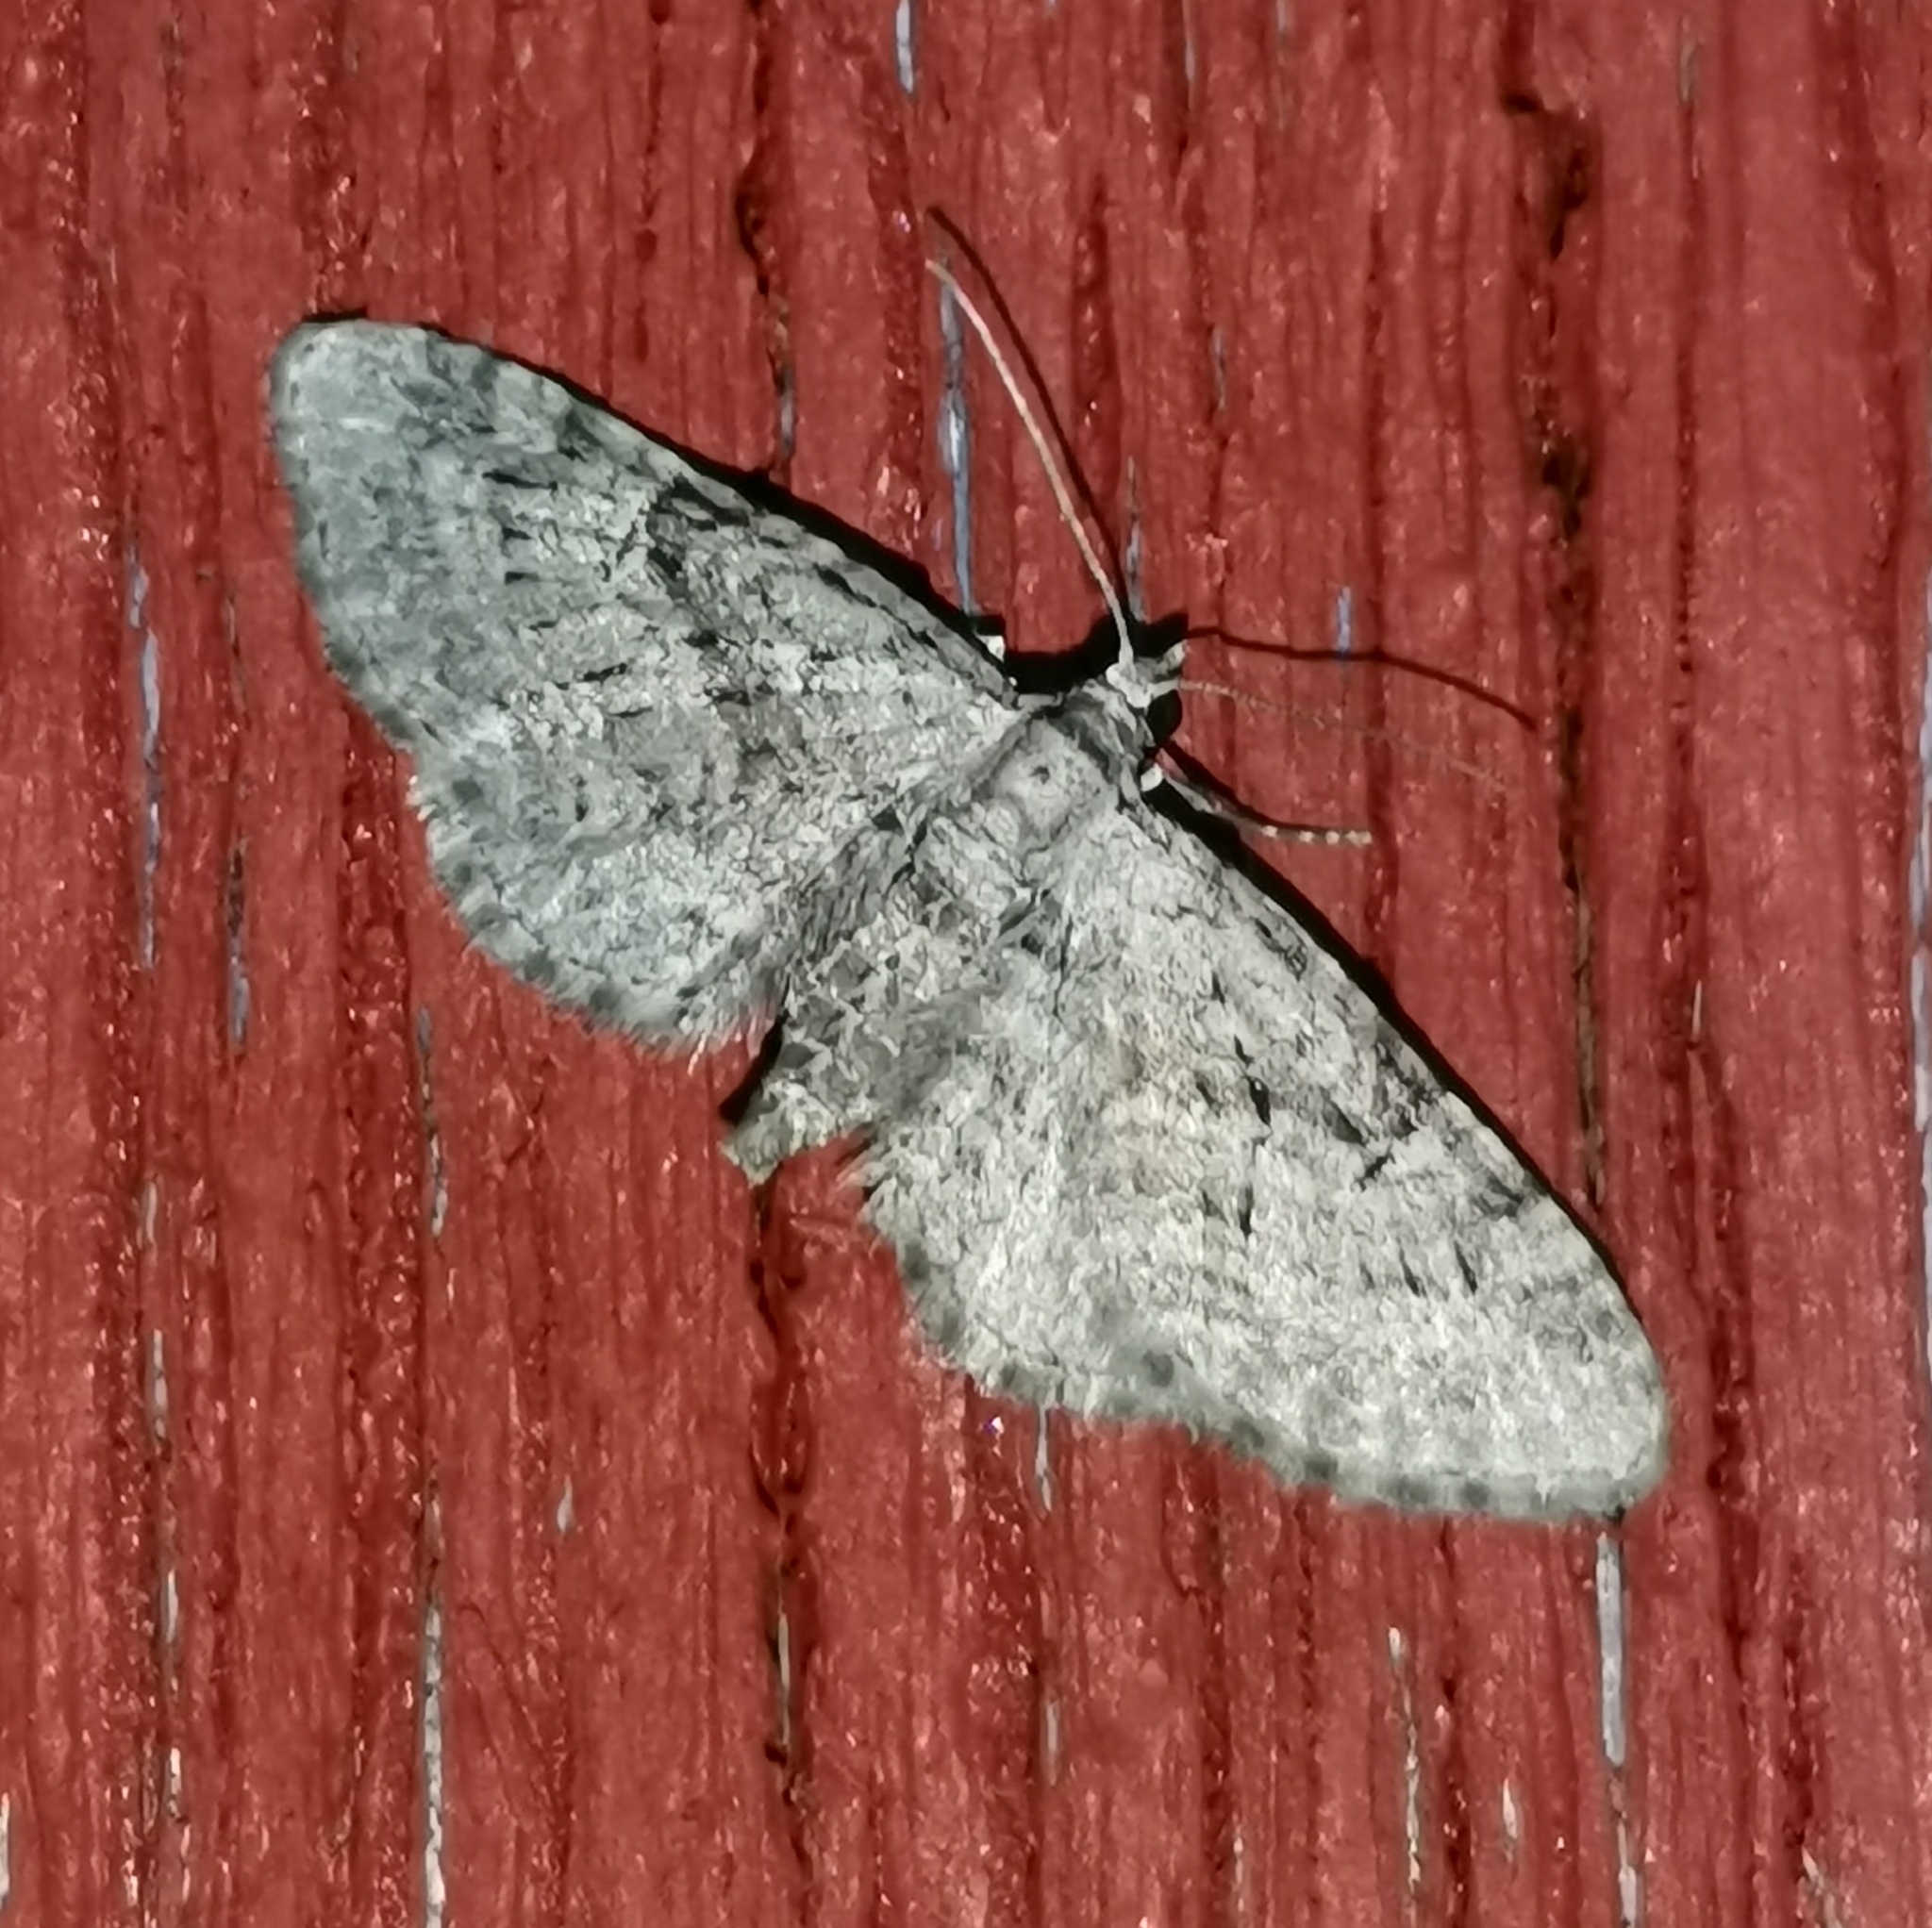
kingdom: Animalia
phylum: Arthropoda
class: Insecta
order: Lepidoptera
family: Geometridae
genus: Eupithecia
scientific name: Eupithecia pusillata
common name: Juniper pug
